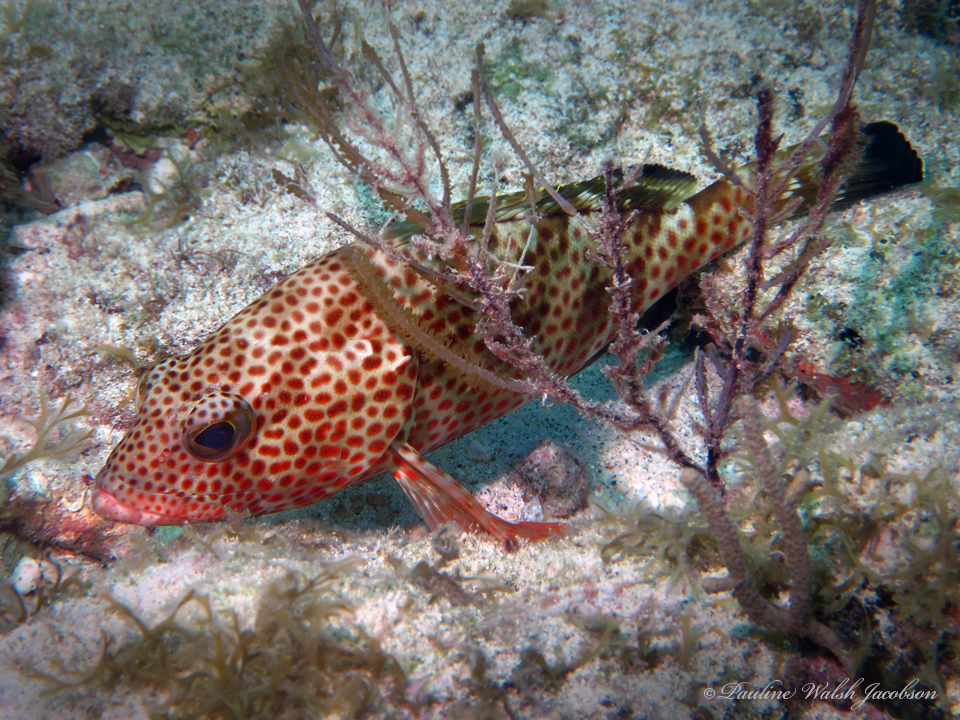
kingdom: Animalia
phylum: Chordata
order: Perciformes
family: Serranidae
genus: Epinephelus
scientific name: Epinephelus guttatus
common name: Red hind
